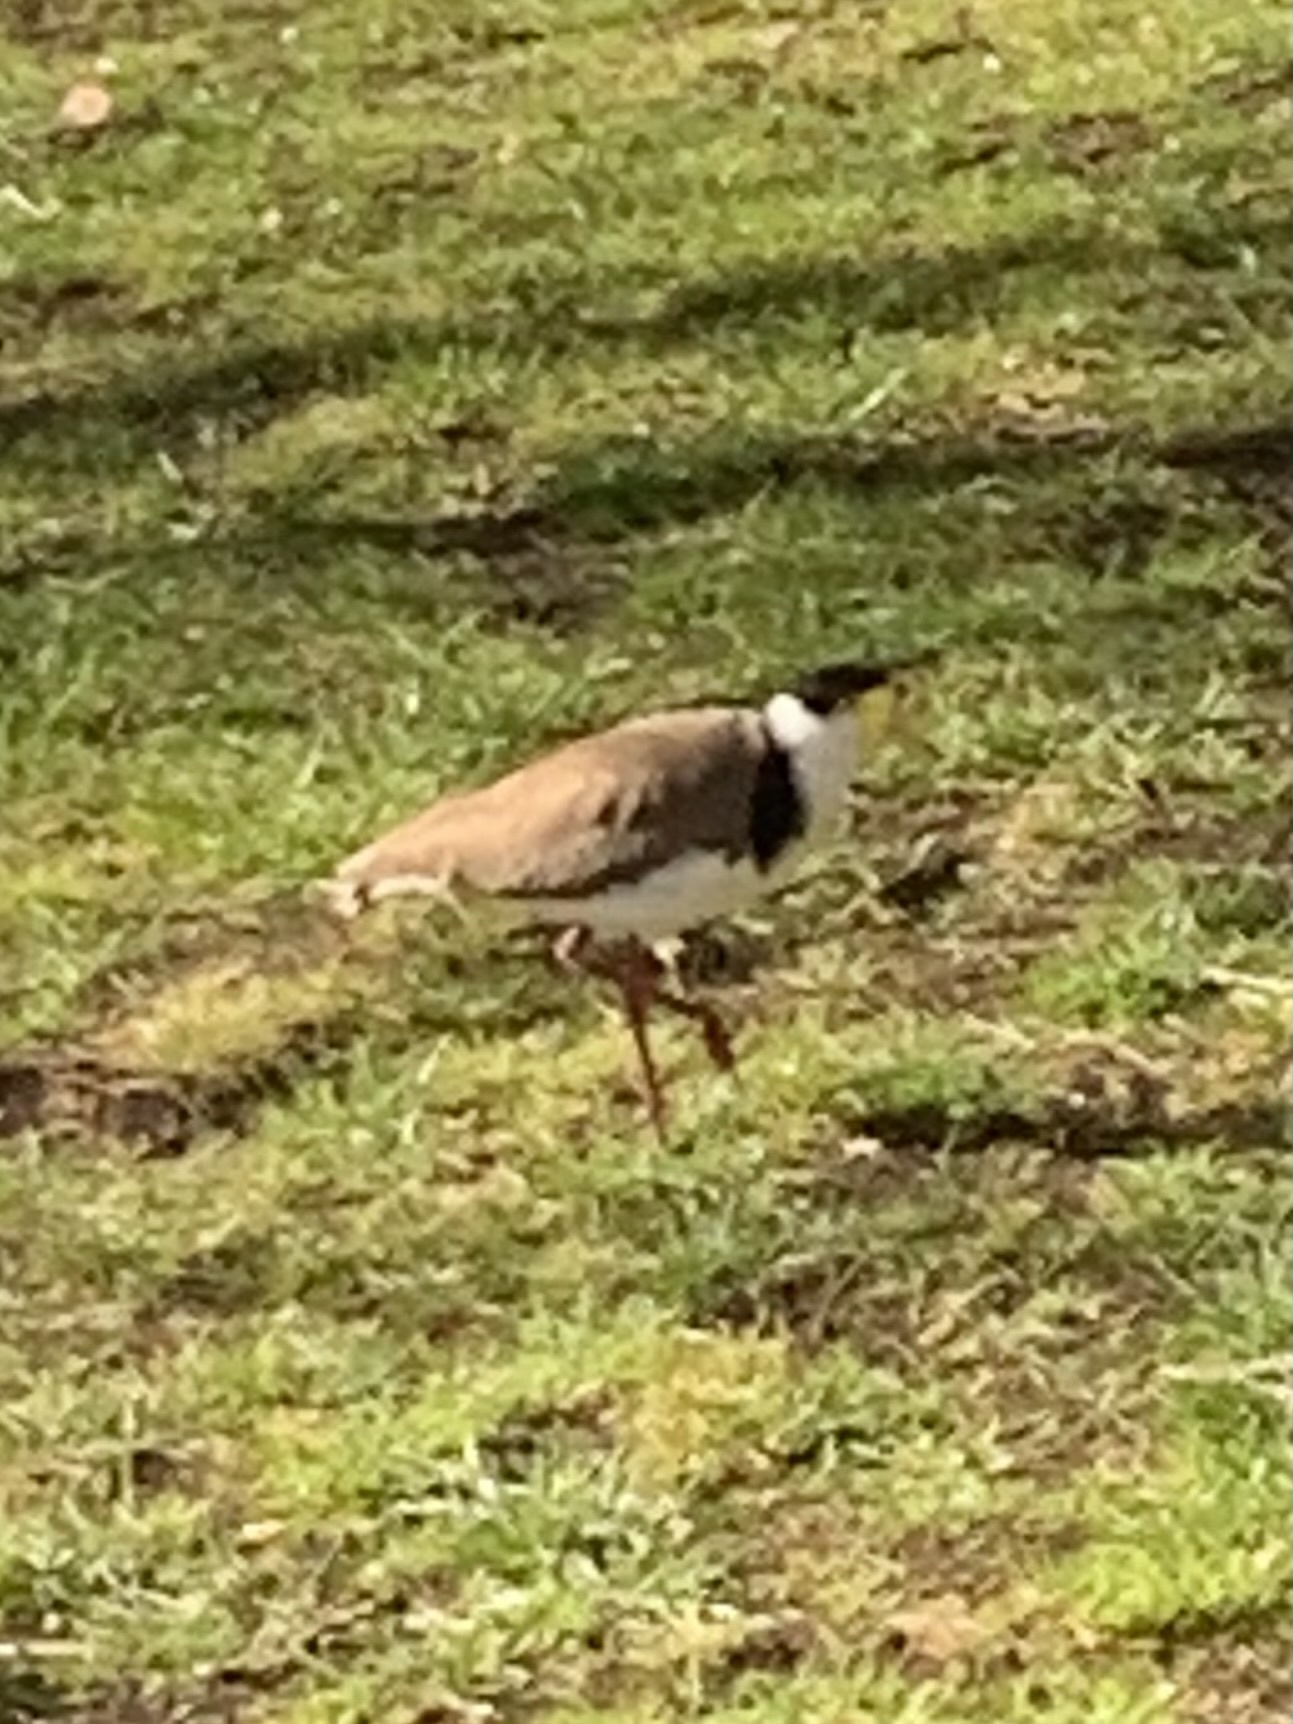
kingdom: Animalia
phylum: Chordata
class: Aves
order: Charadriiformes
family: Charadriidae
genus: Vanellus
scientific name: Vanellus miles
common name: Masked lapwing
